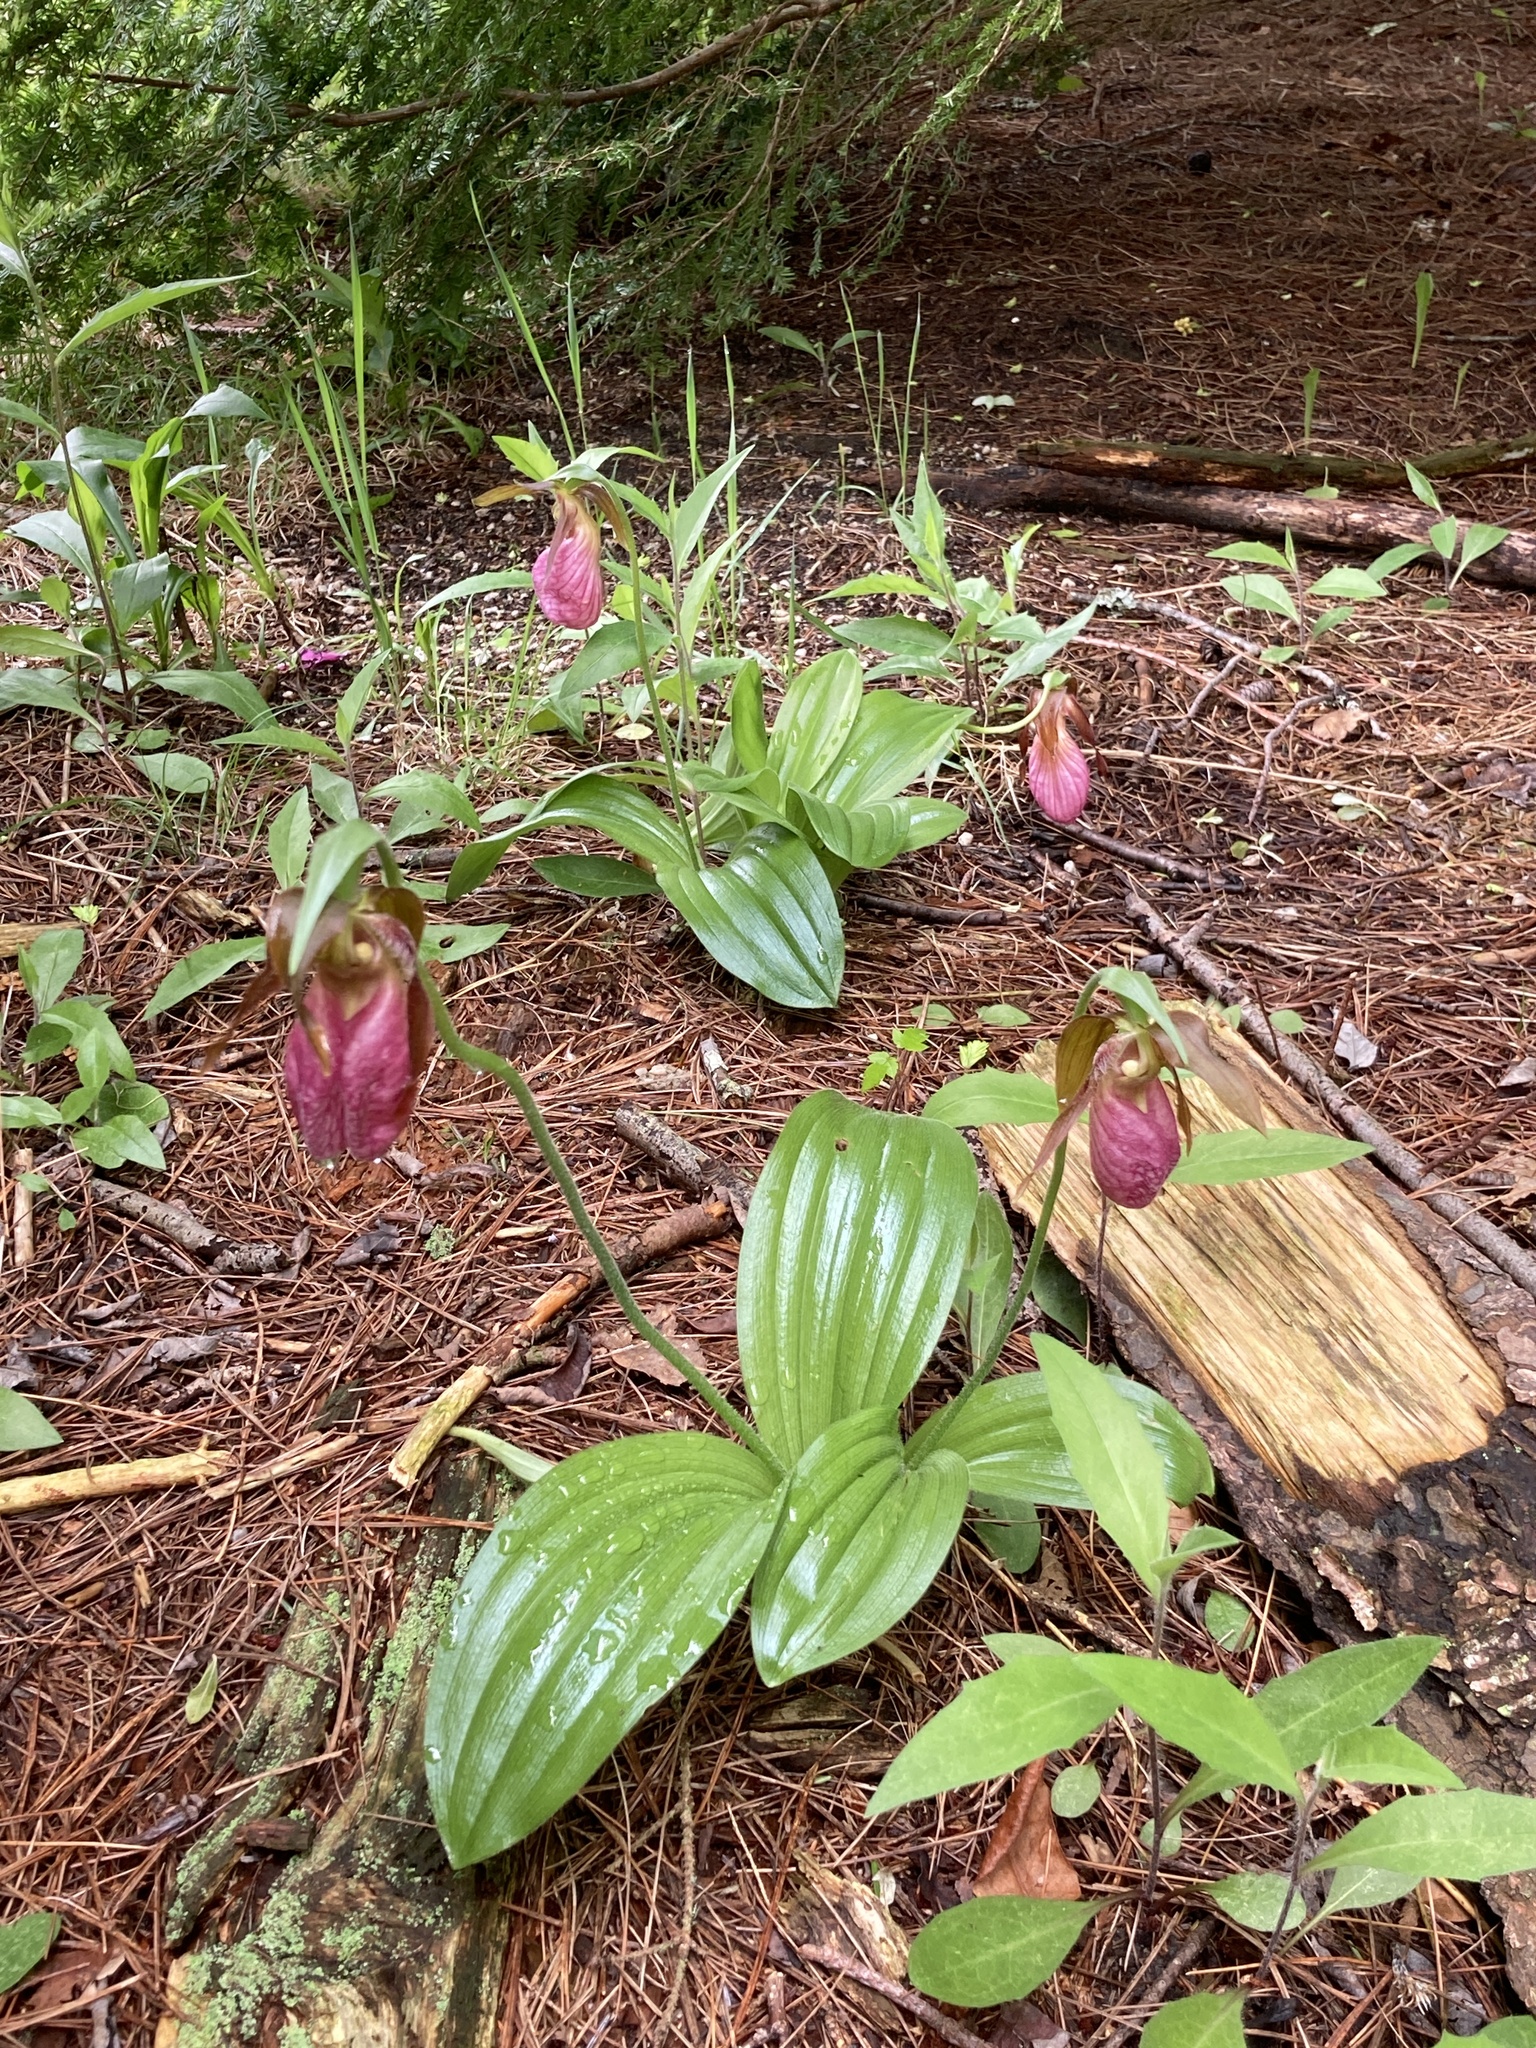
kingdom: Plantae
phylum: Tracheophyta
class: Liliopsida
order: Asparagales
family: Orchidaceae
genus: Cypripedium
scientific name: Cypripedium acaule
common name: Pink lady's-slipper
